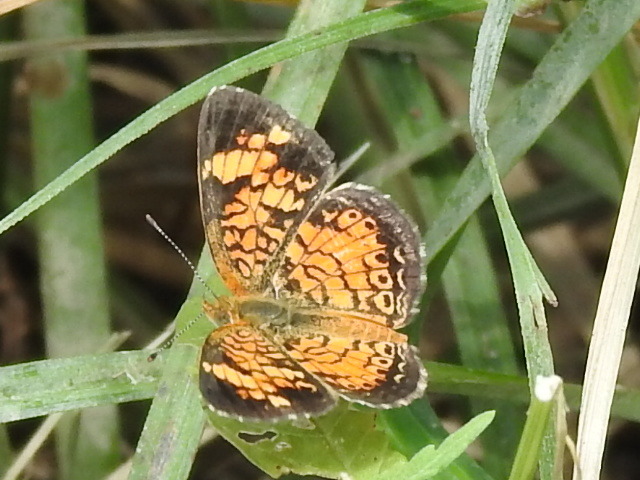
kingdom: Animalia
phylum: Arthropoda
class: Insecta
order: Lepidoptera
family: Nymphalidae
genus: Phyciodes
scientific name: Phyciodes tharos
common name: Pearl crescent
